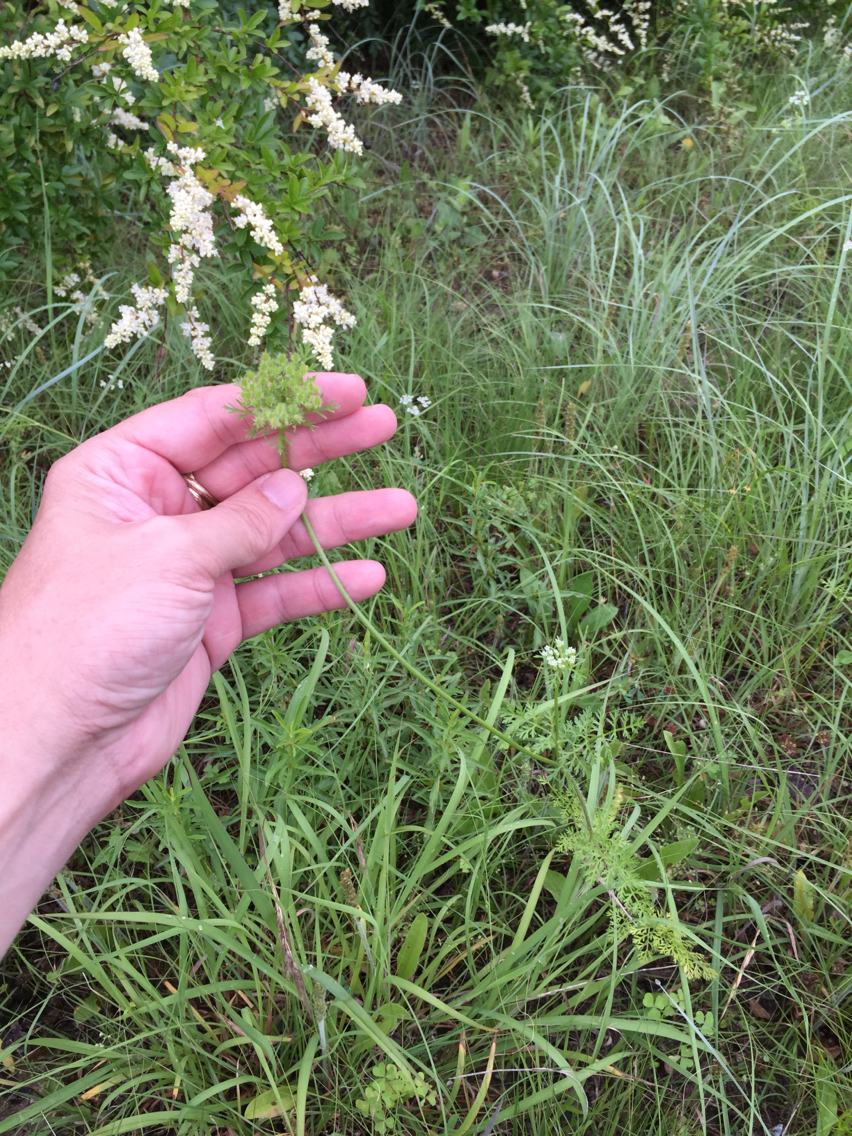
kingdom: Plantae
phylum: Tracheophyta
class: Magnoliopsida
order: Apiales
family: Apiaceae
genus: Daucus
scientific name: Daucus pusillus
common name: Southwest wild carrot
